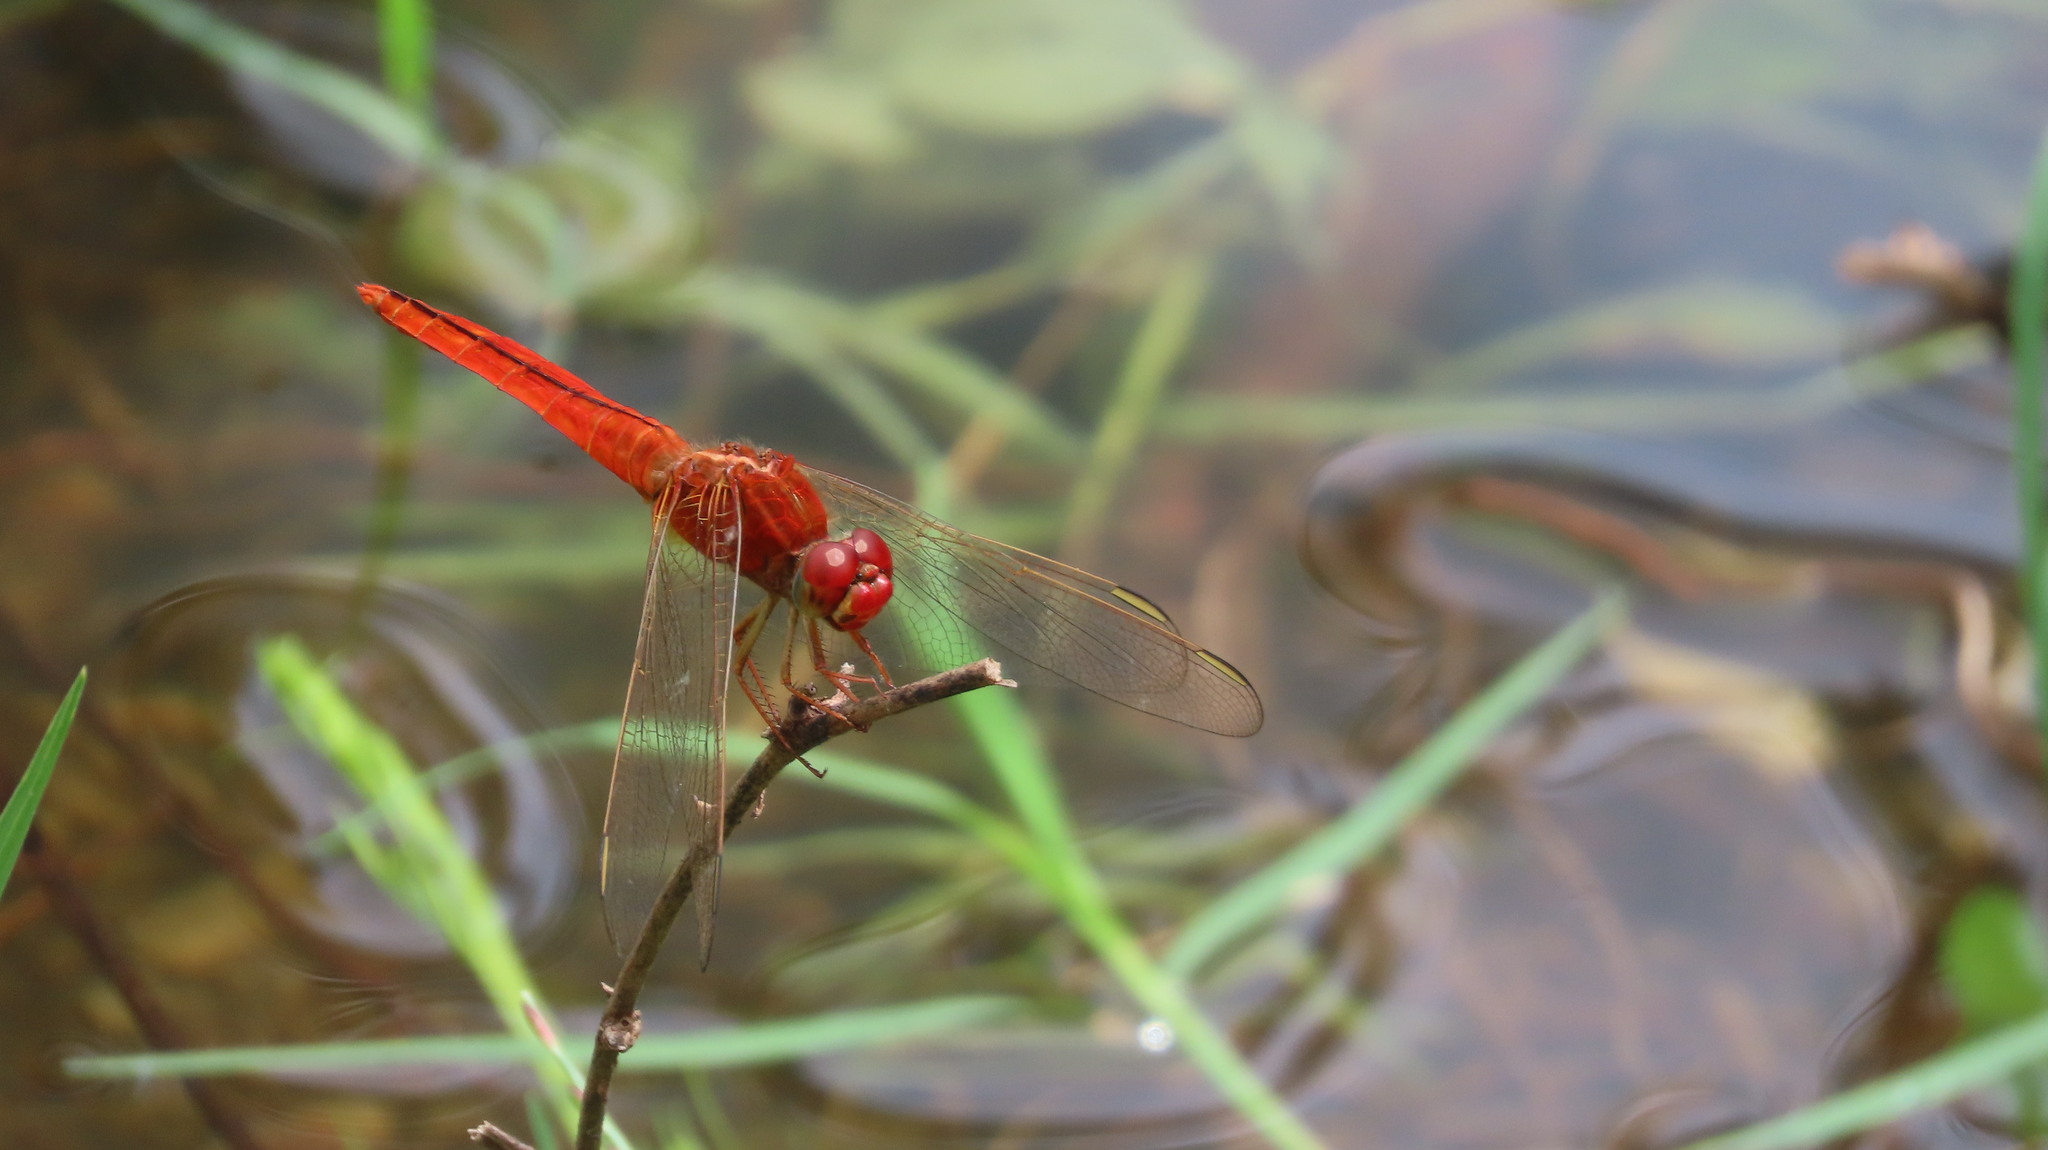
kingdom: Animalia
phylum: Arthropoda
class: Insecta
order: Odonata
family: Libellulidae
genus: Crocothemis
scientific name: Crocothemis servilia
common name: Scarlet skimmer
